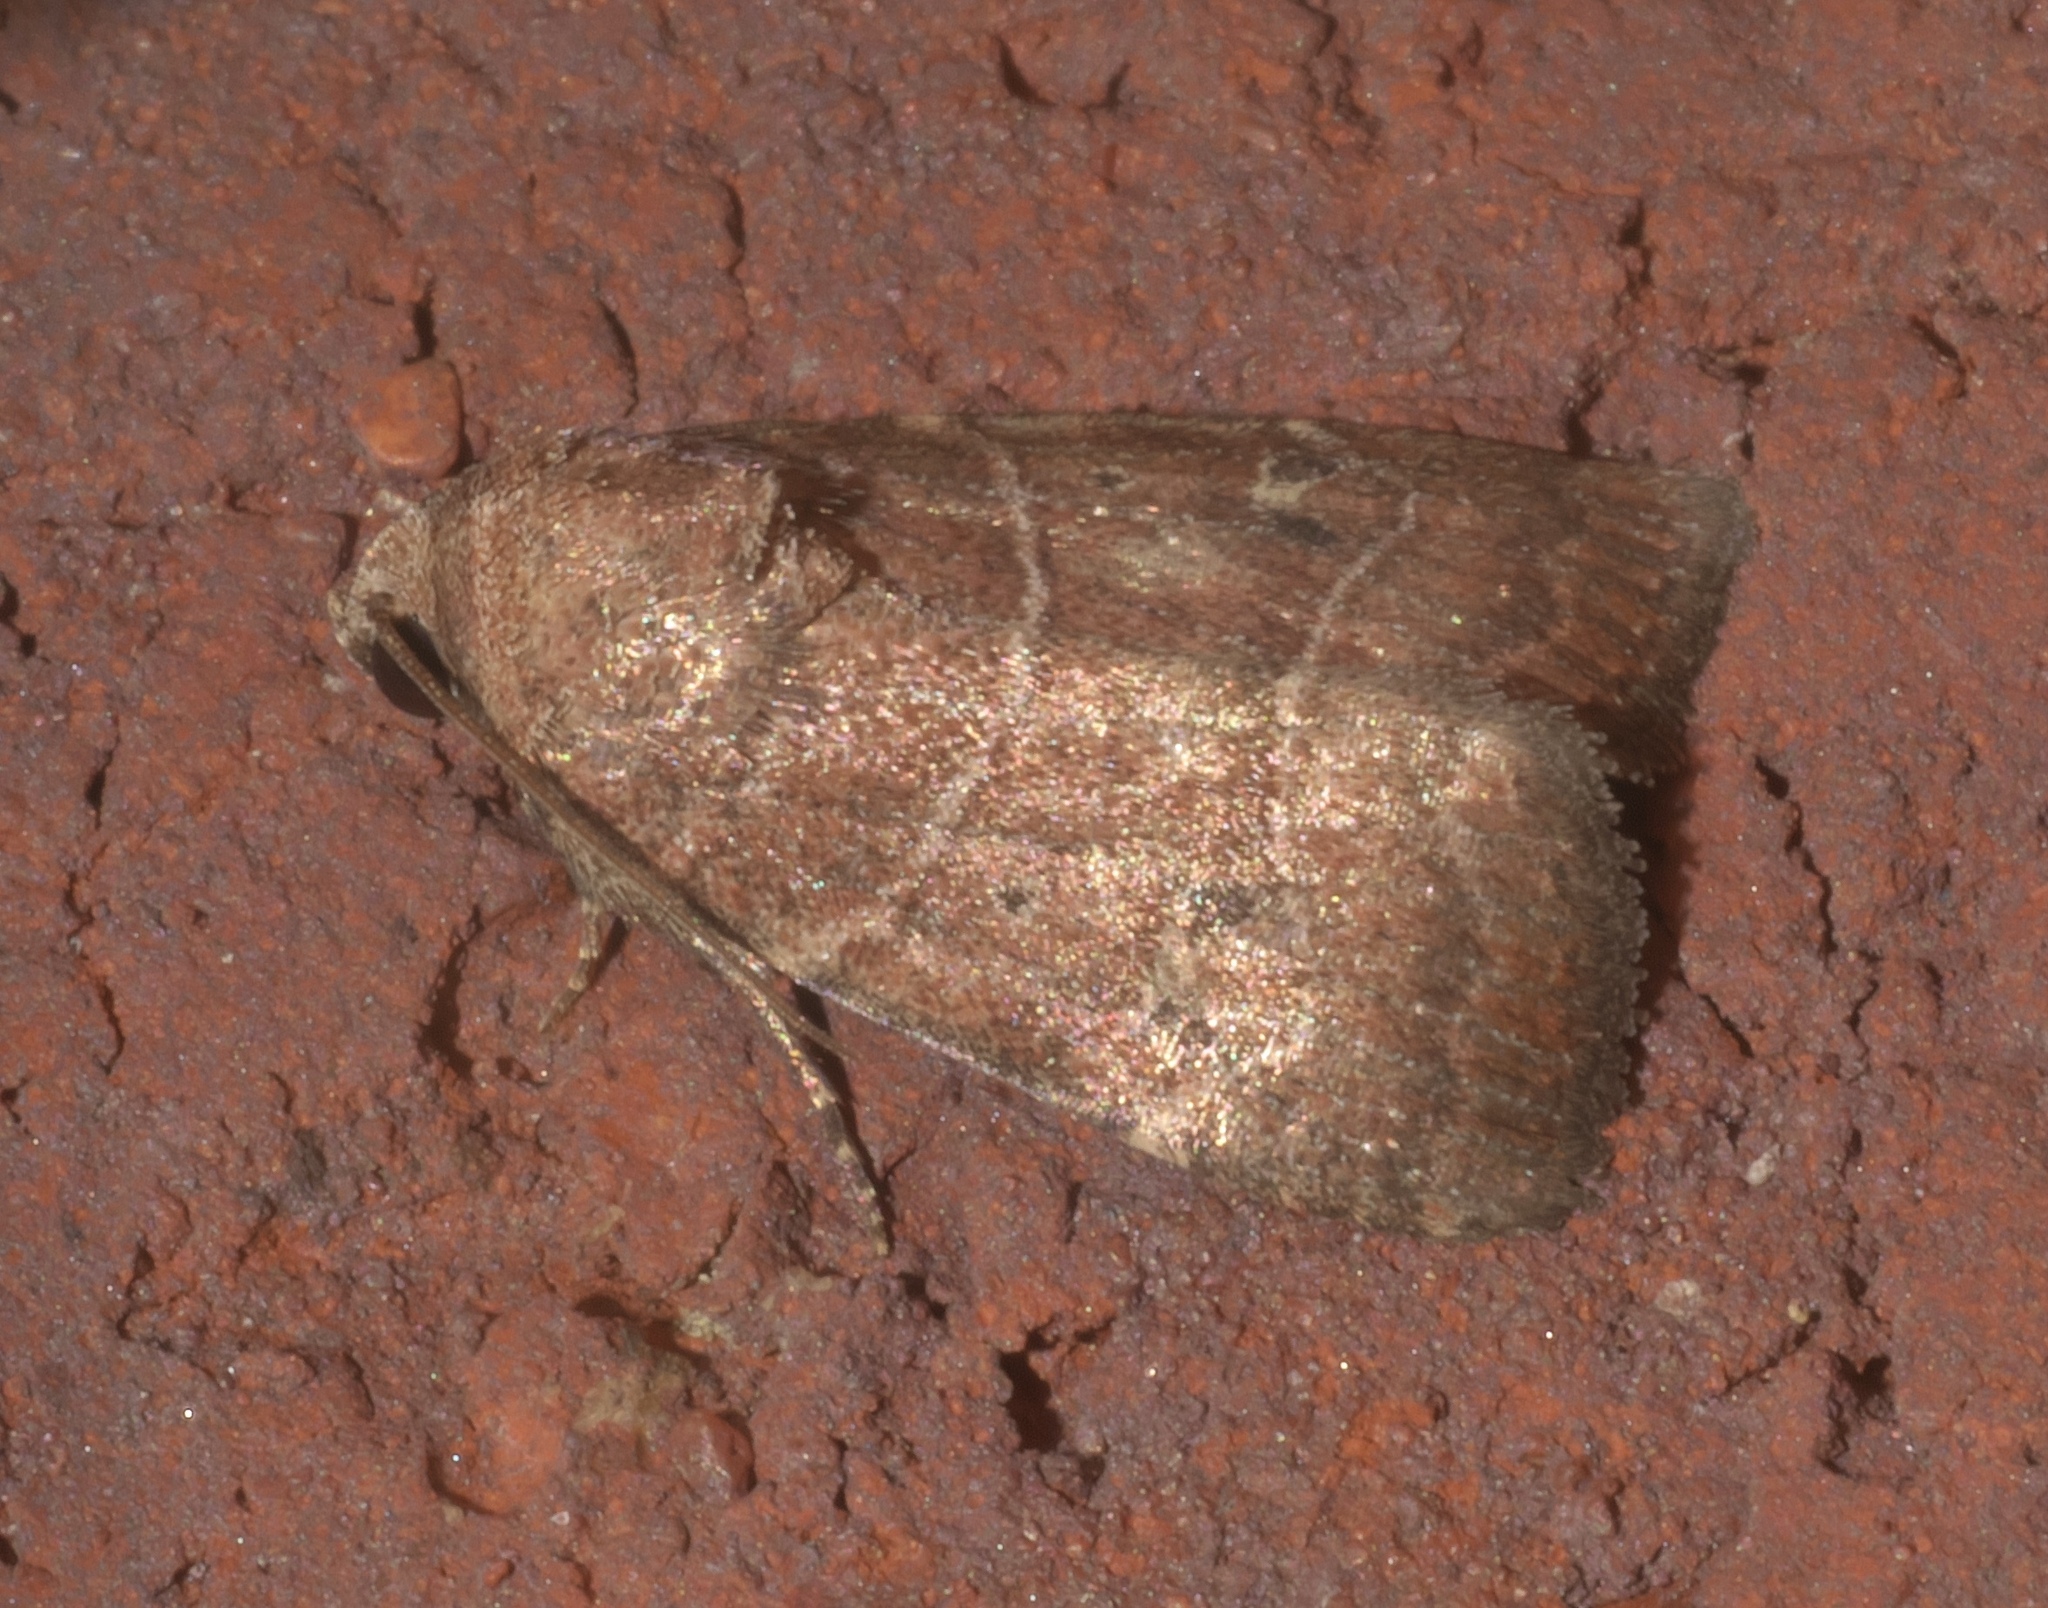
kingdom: Animalia
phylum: Arthropoda
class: Insecta
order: Lepidoptera
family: Noctuidae
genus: Elaphria
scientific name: Elaphria grata
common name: Grateful midget moth
